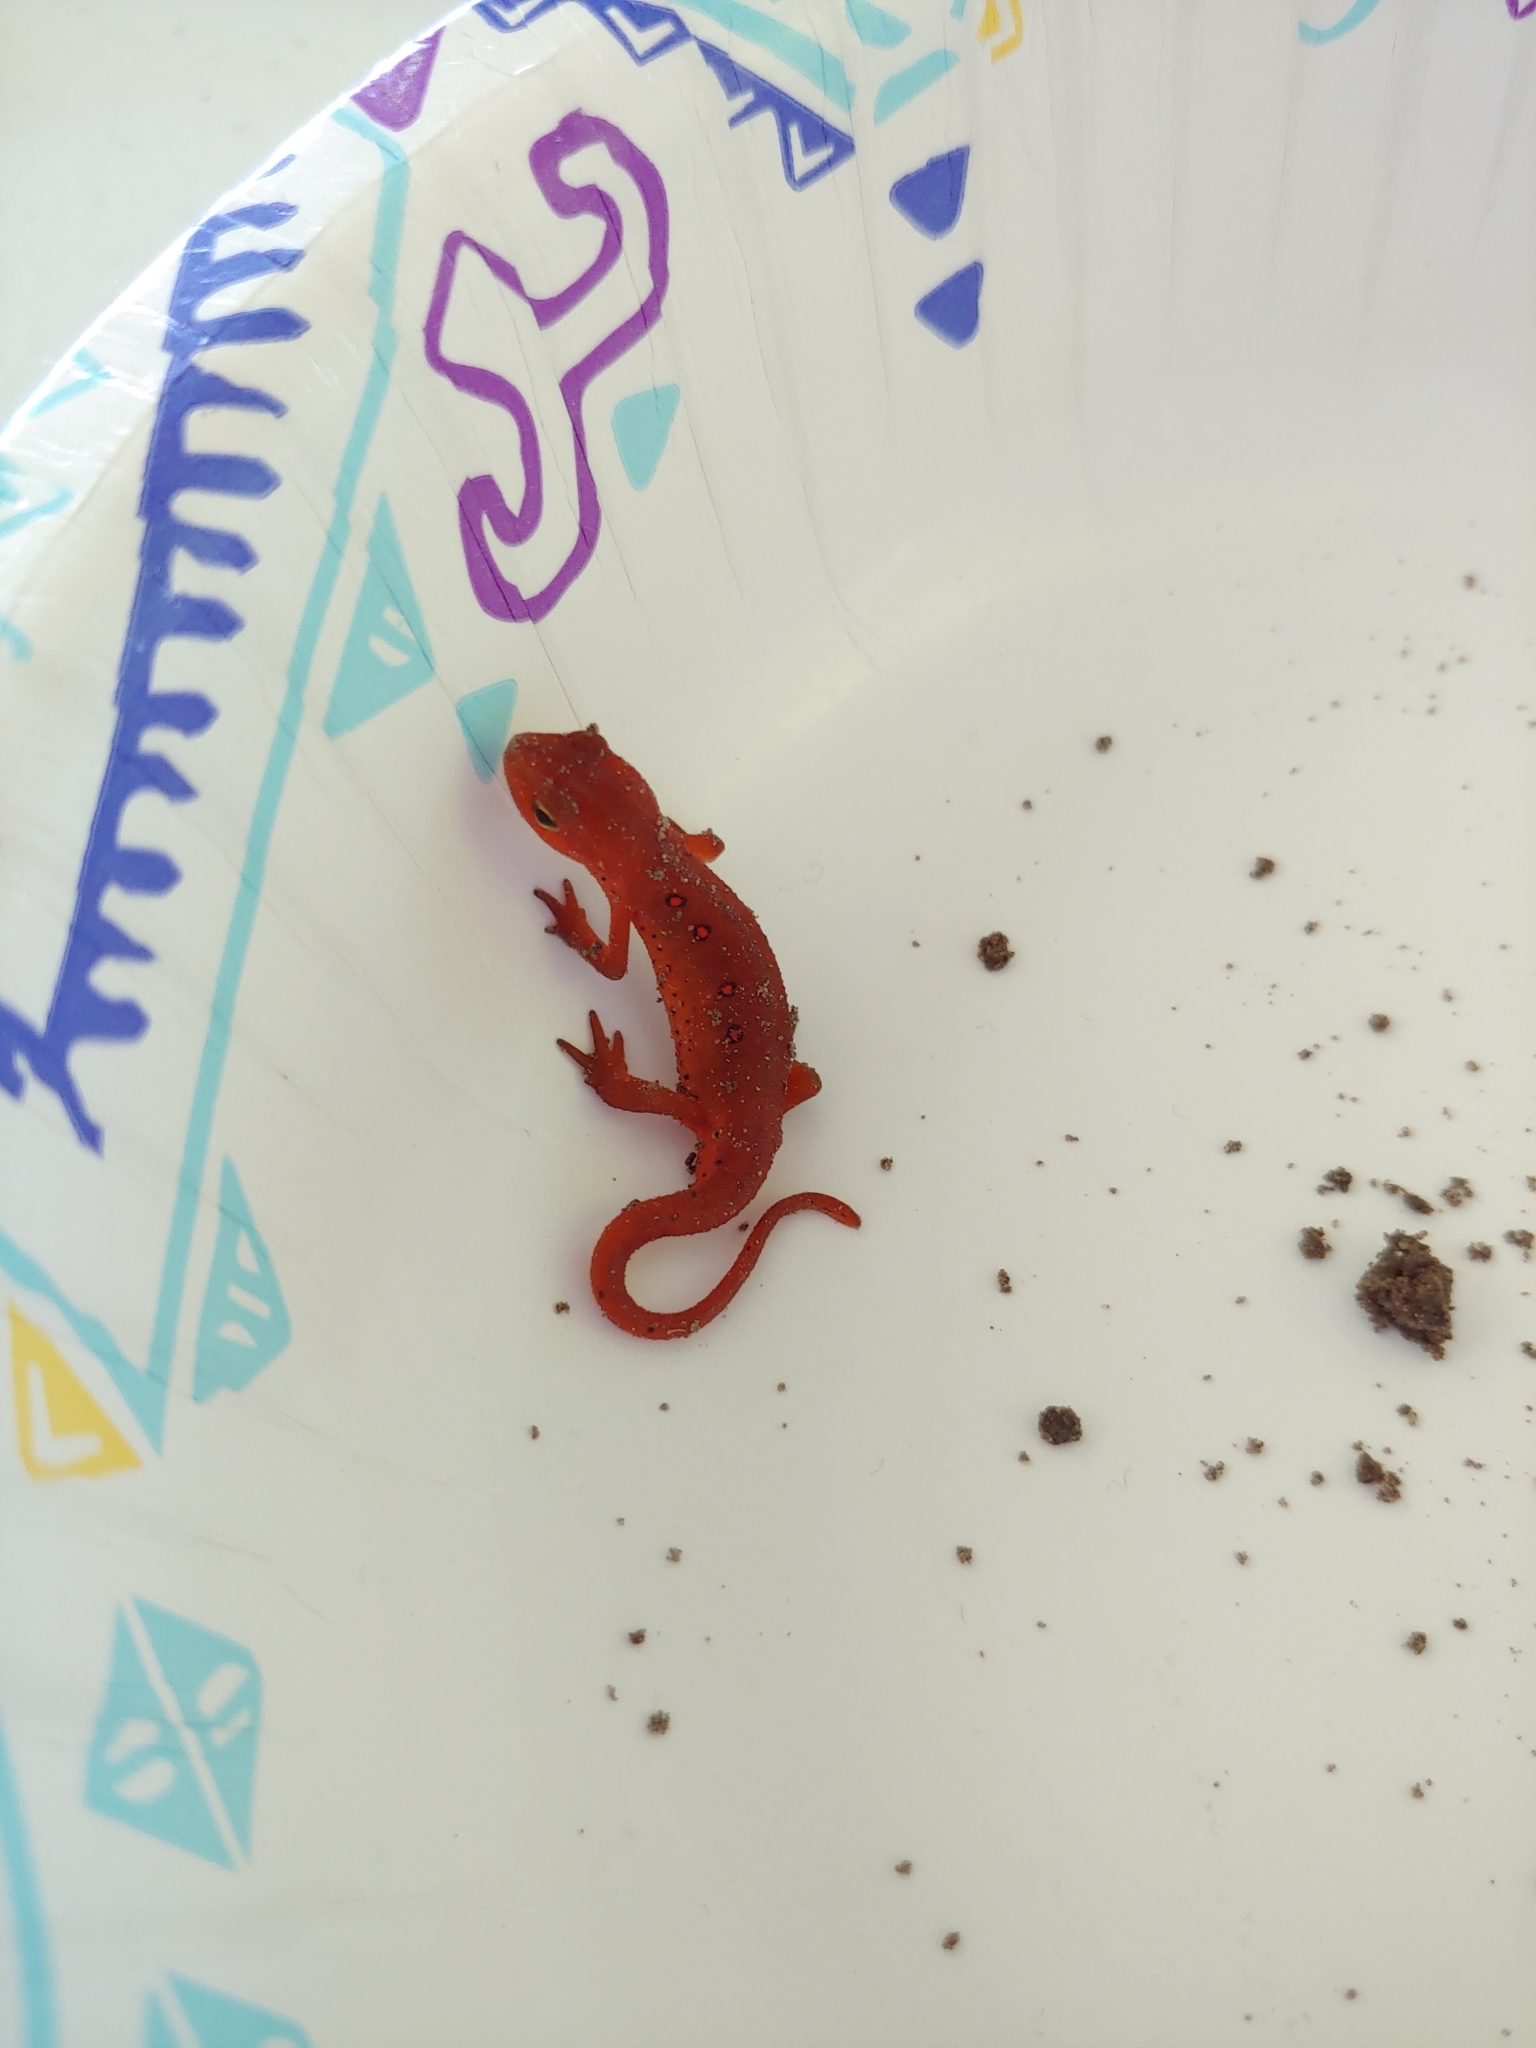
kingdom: Animalia
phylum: Chordata
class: Amphibia
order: Caudata
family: Salamandridae
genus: Notophthalmus
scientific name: Notophthalmus viridescens
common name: Eastern newt
